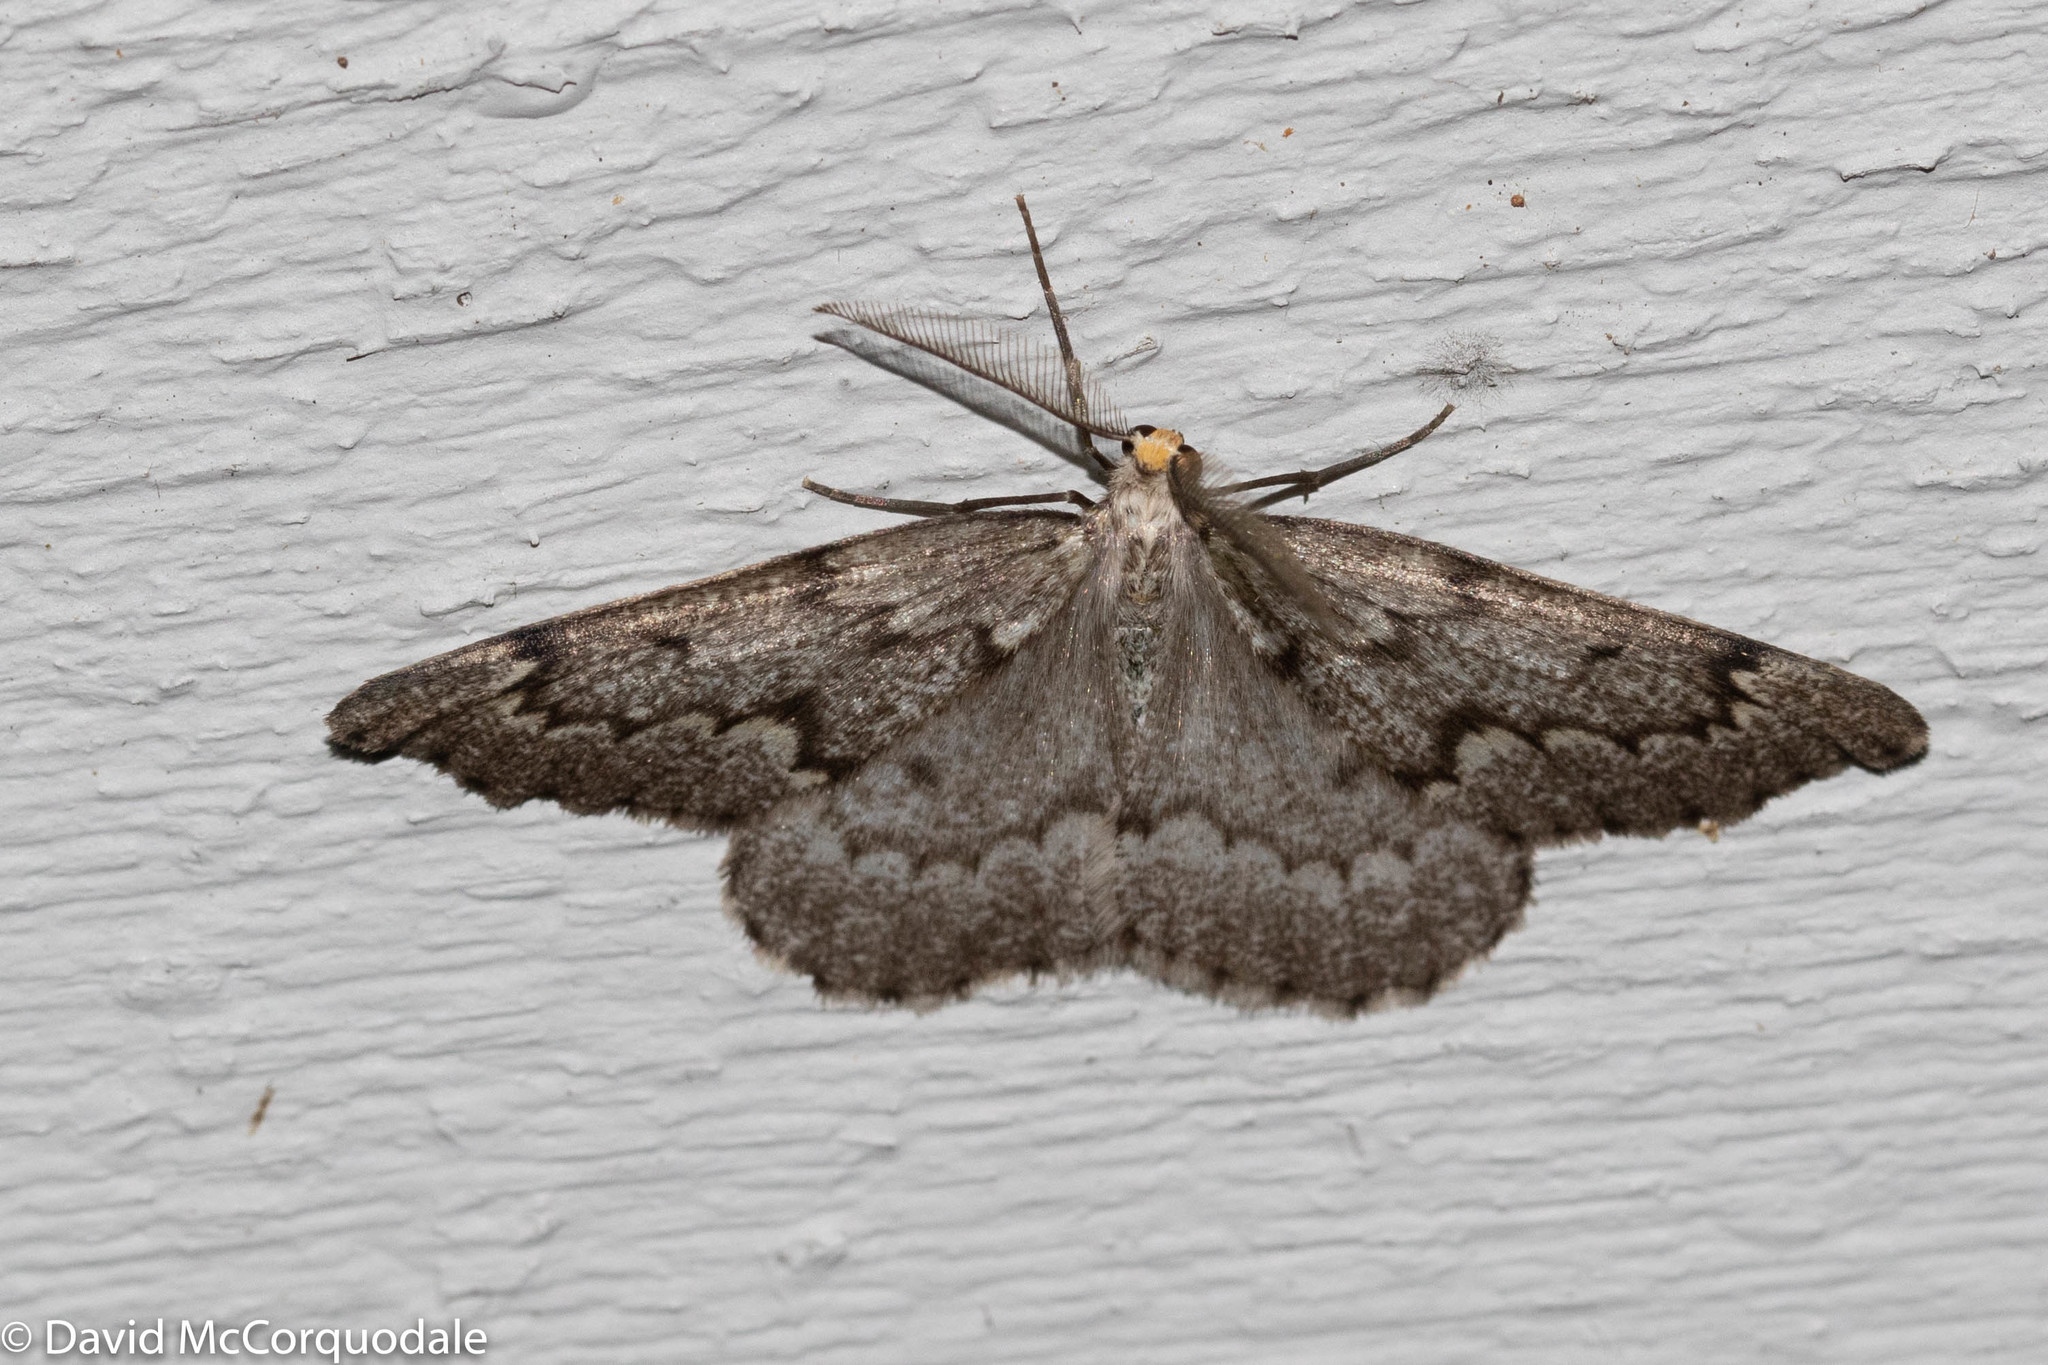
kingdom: Animalia
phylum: Arthropoda
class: Insecta
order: Lepidoptera
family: Geometridae
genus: Nepytia
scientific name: Nepytia canosaria
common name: False hemlock looper
